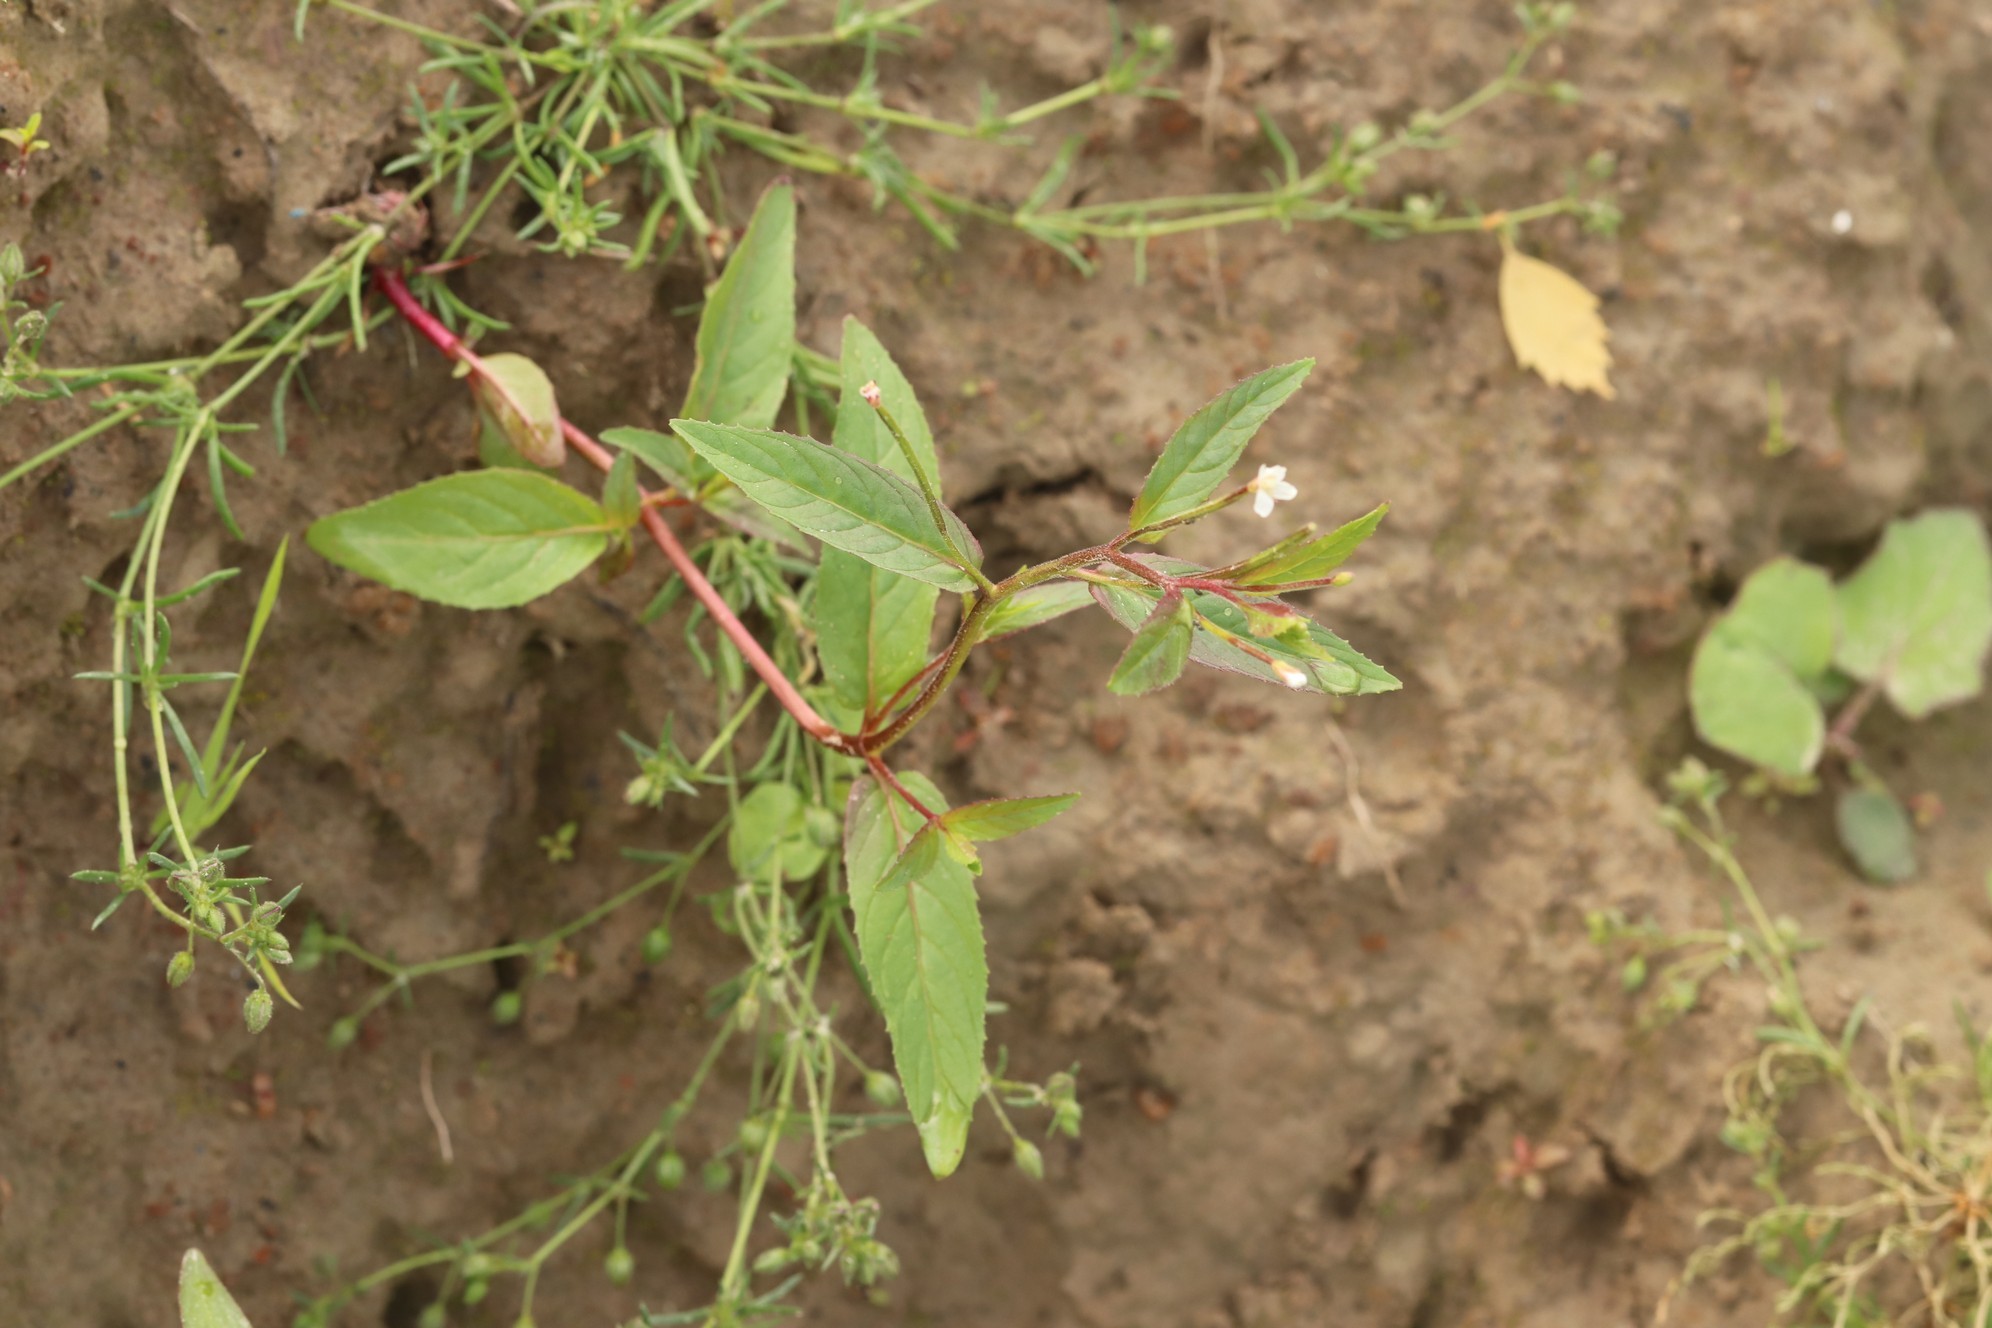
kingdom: Plantae
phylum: Tracheophyta
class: Magnoliopsida
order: Myrtales
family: Onagraceae
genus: Epilobium
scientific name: Epilobium pseudorubescens
